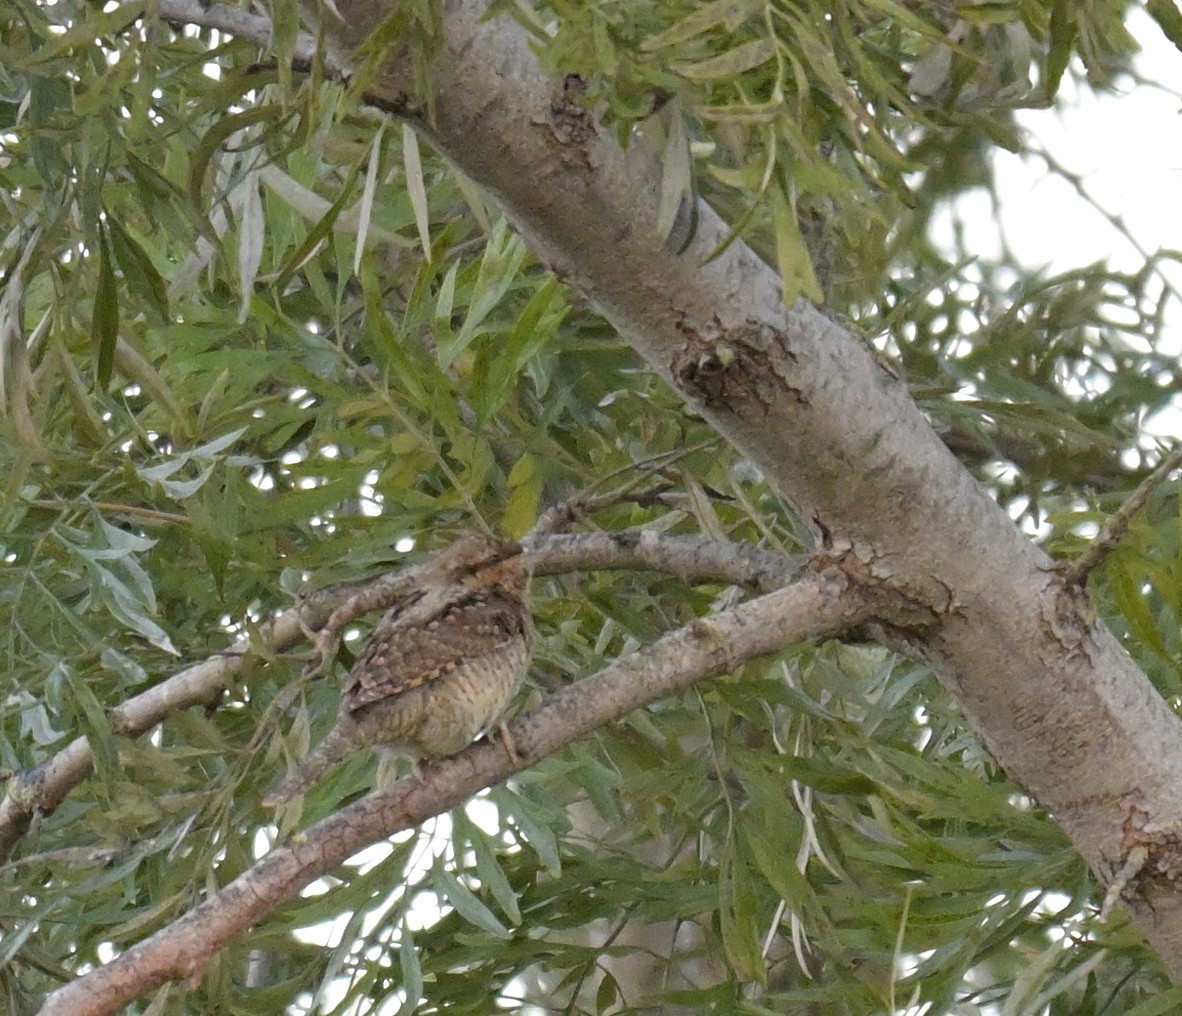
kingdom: Animalia
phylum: Chordata
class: Aves
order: Piciformes
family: Picidae
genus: Jynx
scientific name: Jynx torquilla
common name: Eurasian wryneck
